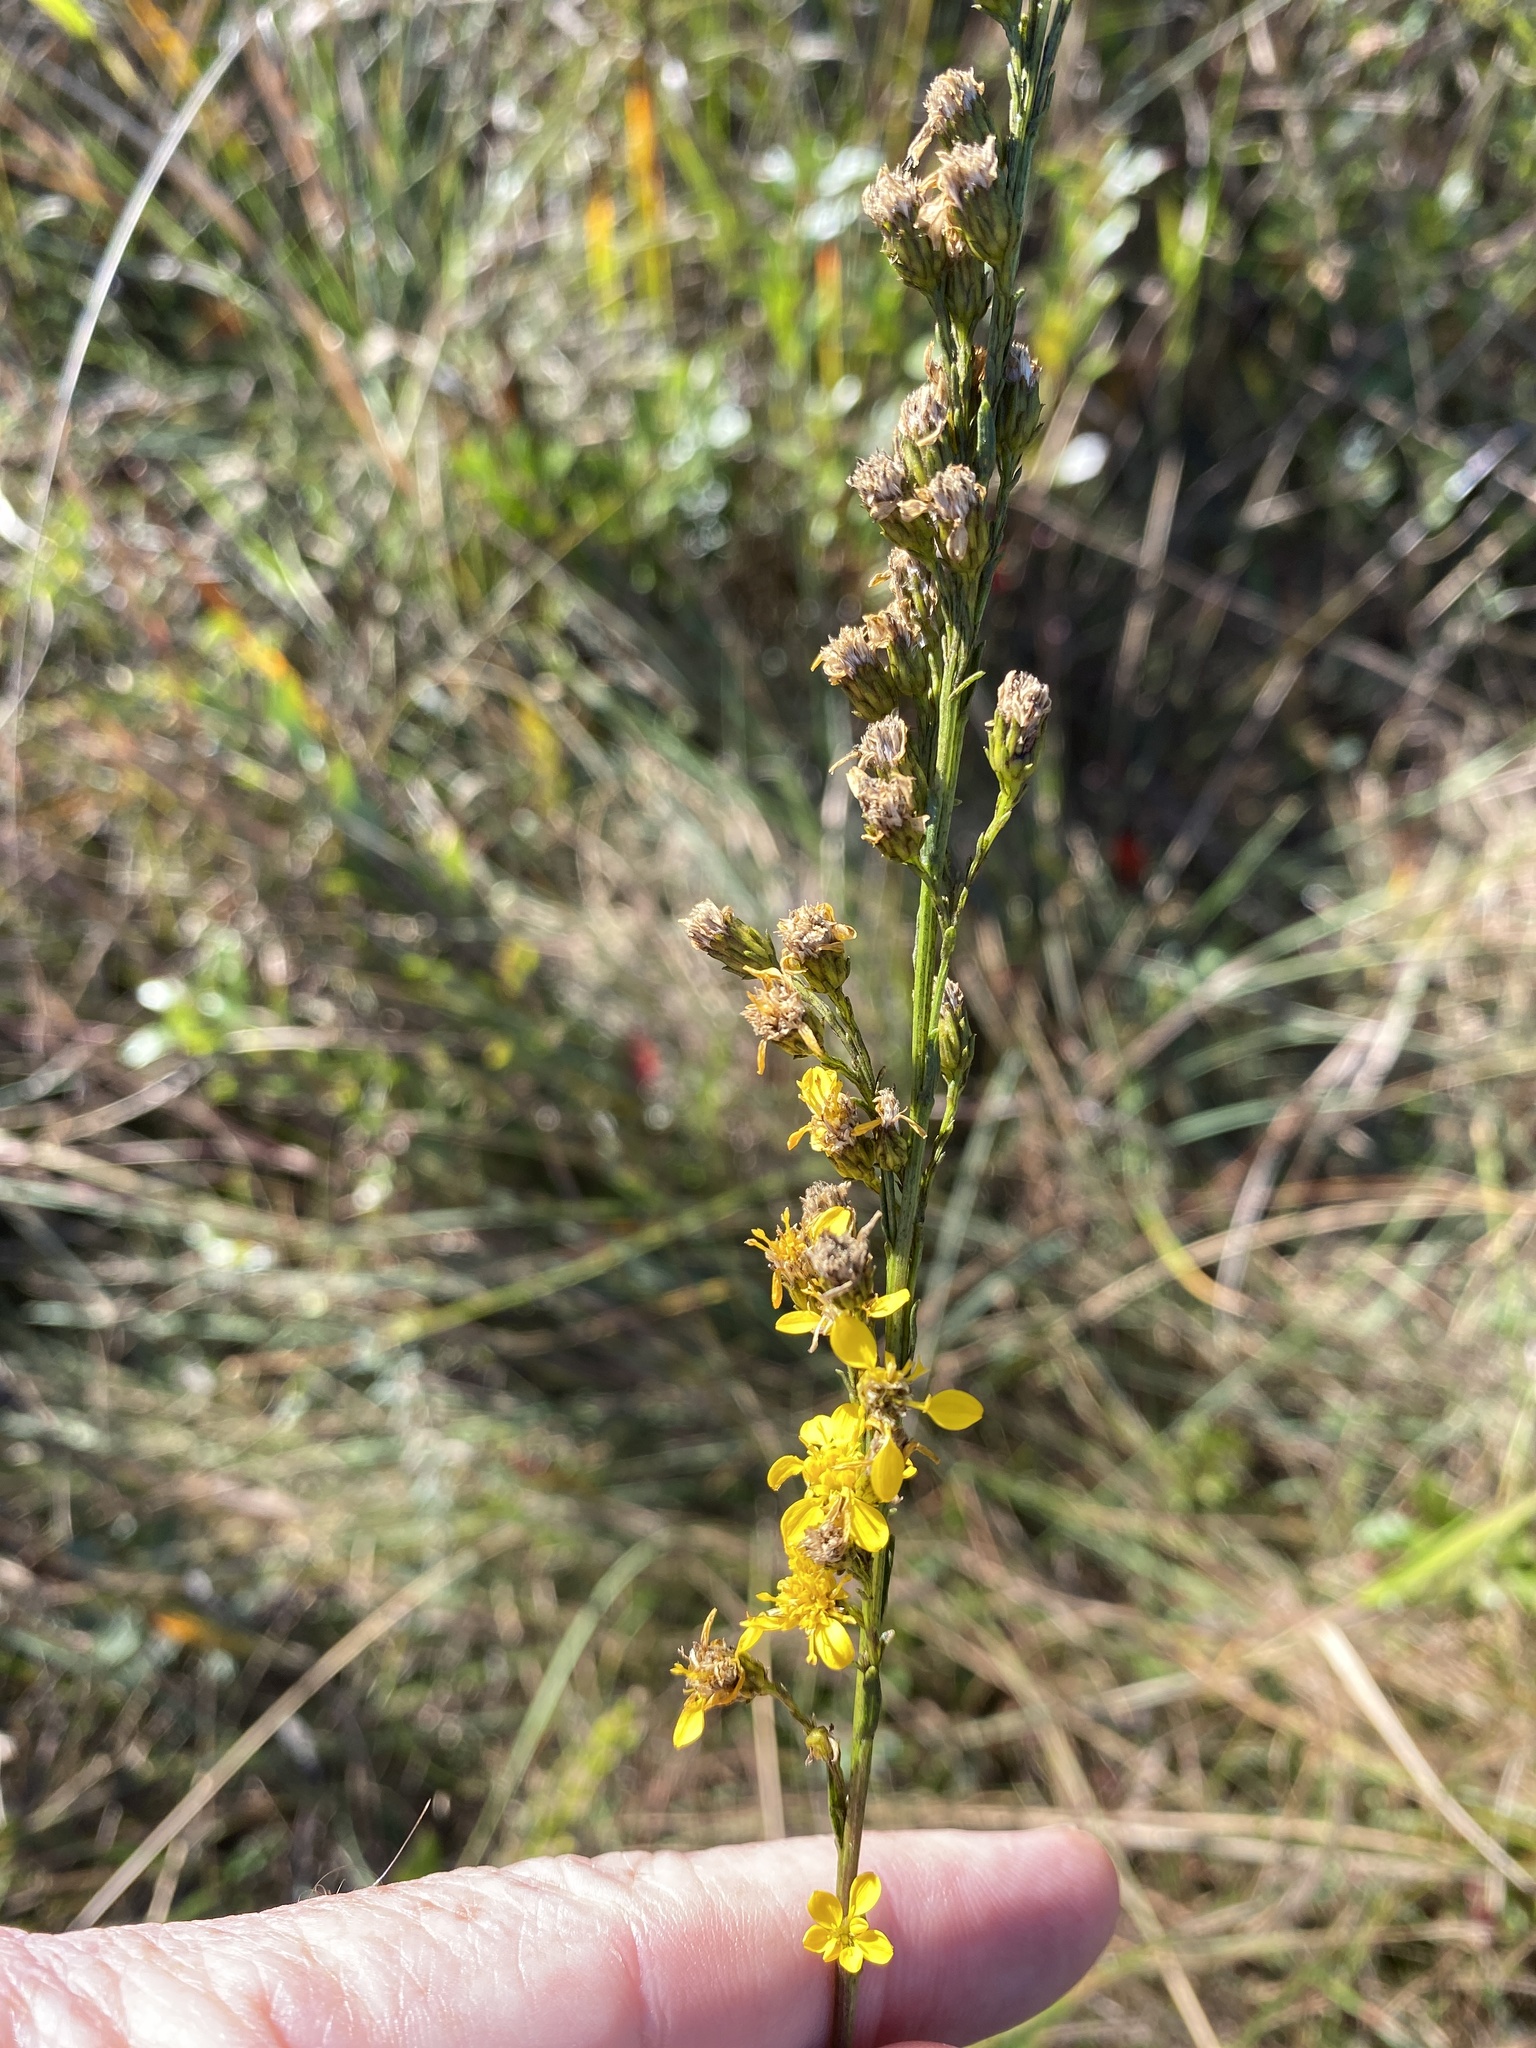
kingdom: Plantae
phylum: Tracheophyta
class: Magnoliopsida
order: Asterales
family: Asteraceae
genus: Solidago
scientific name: Solidago gracillima
